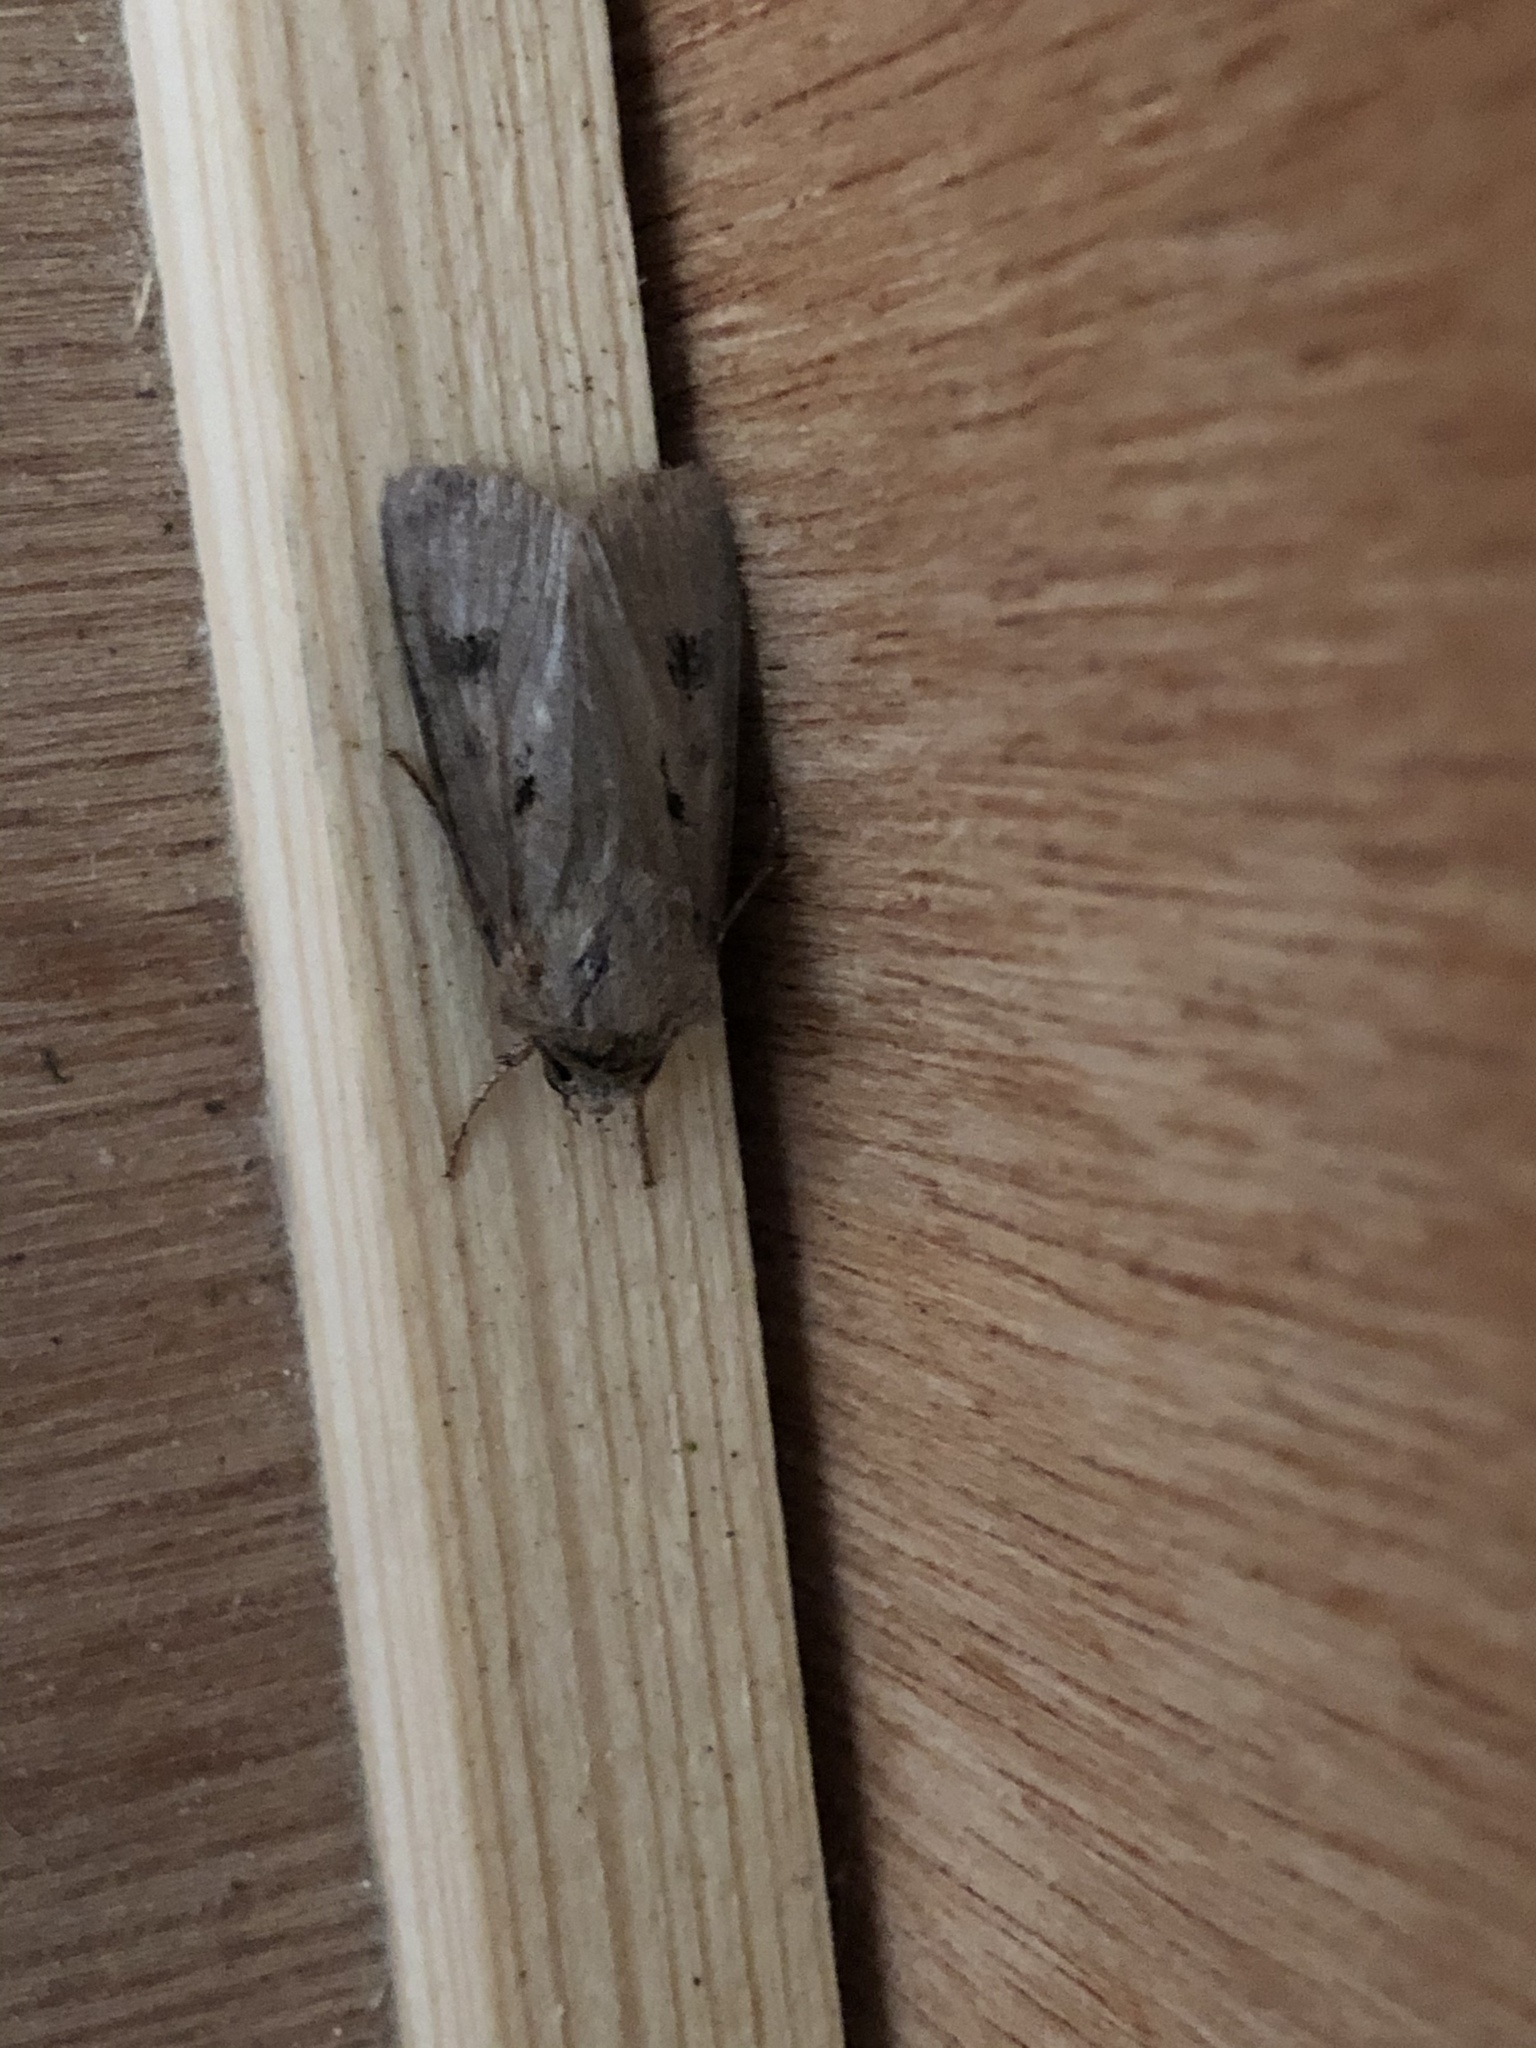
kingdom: Animalia
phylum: Arthropoda
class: Insecta
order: Lepidoptera
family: Noctuidae
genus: Agrotis
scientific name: Agrotis exclamationis
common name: Heart and dart
